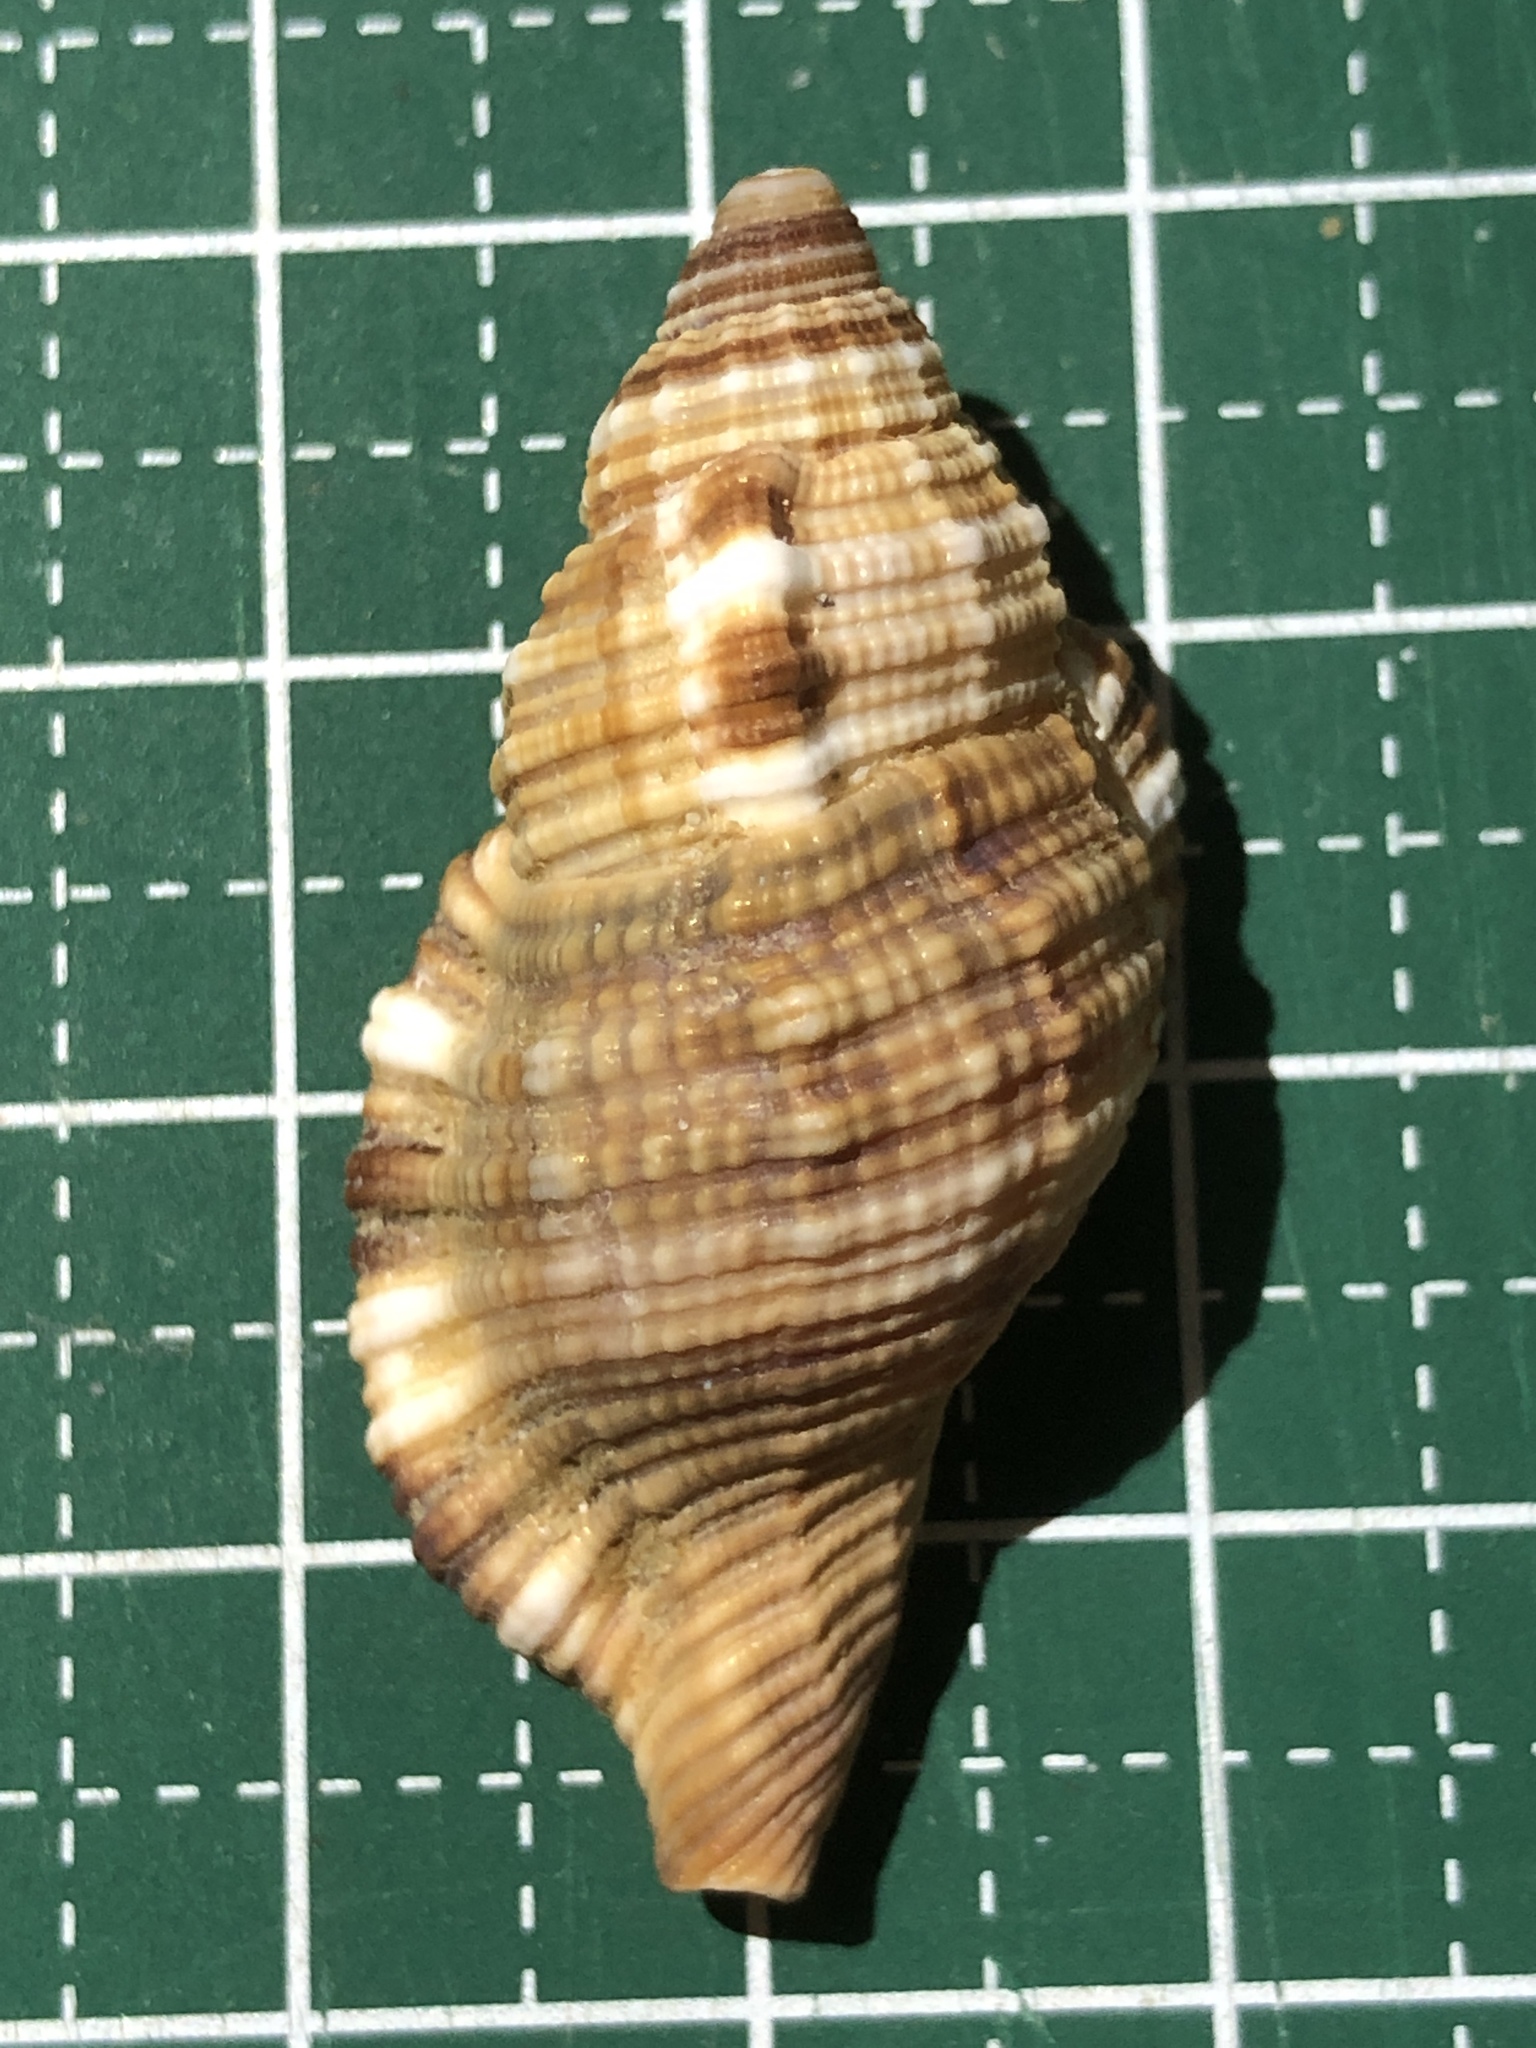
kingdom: Animalia
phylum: Mollusca
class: Gastropoda
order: Littorinimorpha
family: Cymatiidae
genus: Monoplex
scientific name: Monoplex pilearis
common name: Hairy triton
